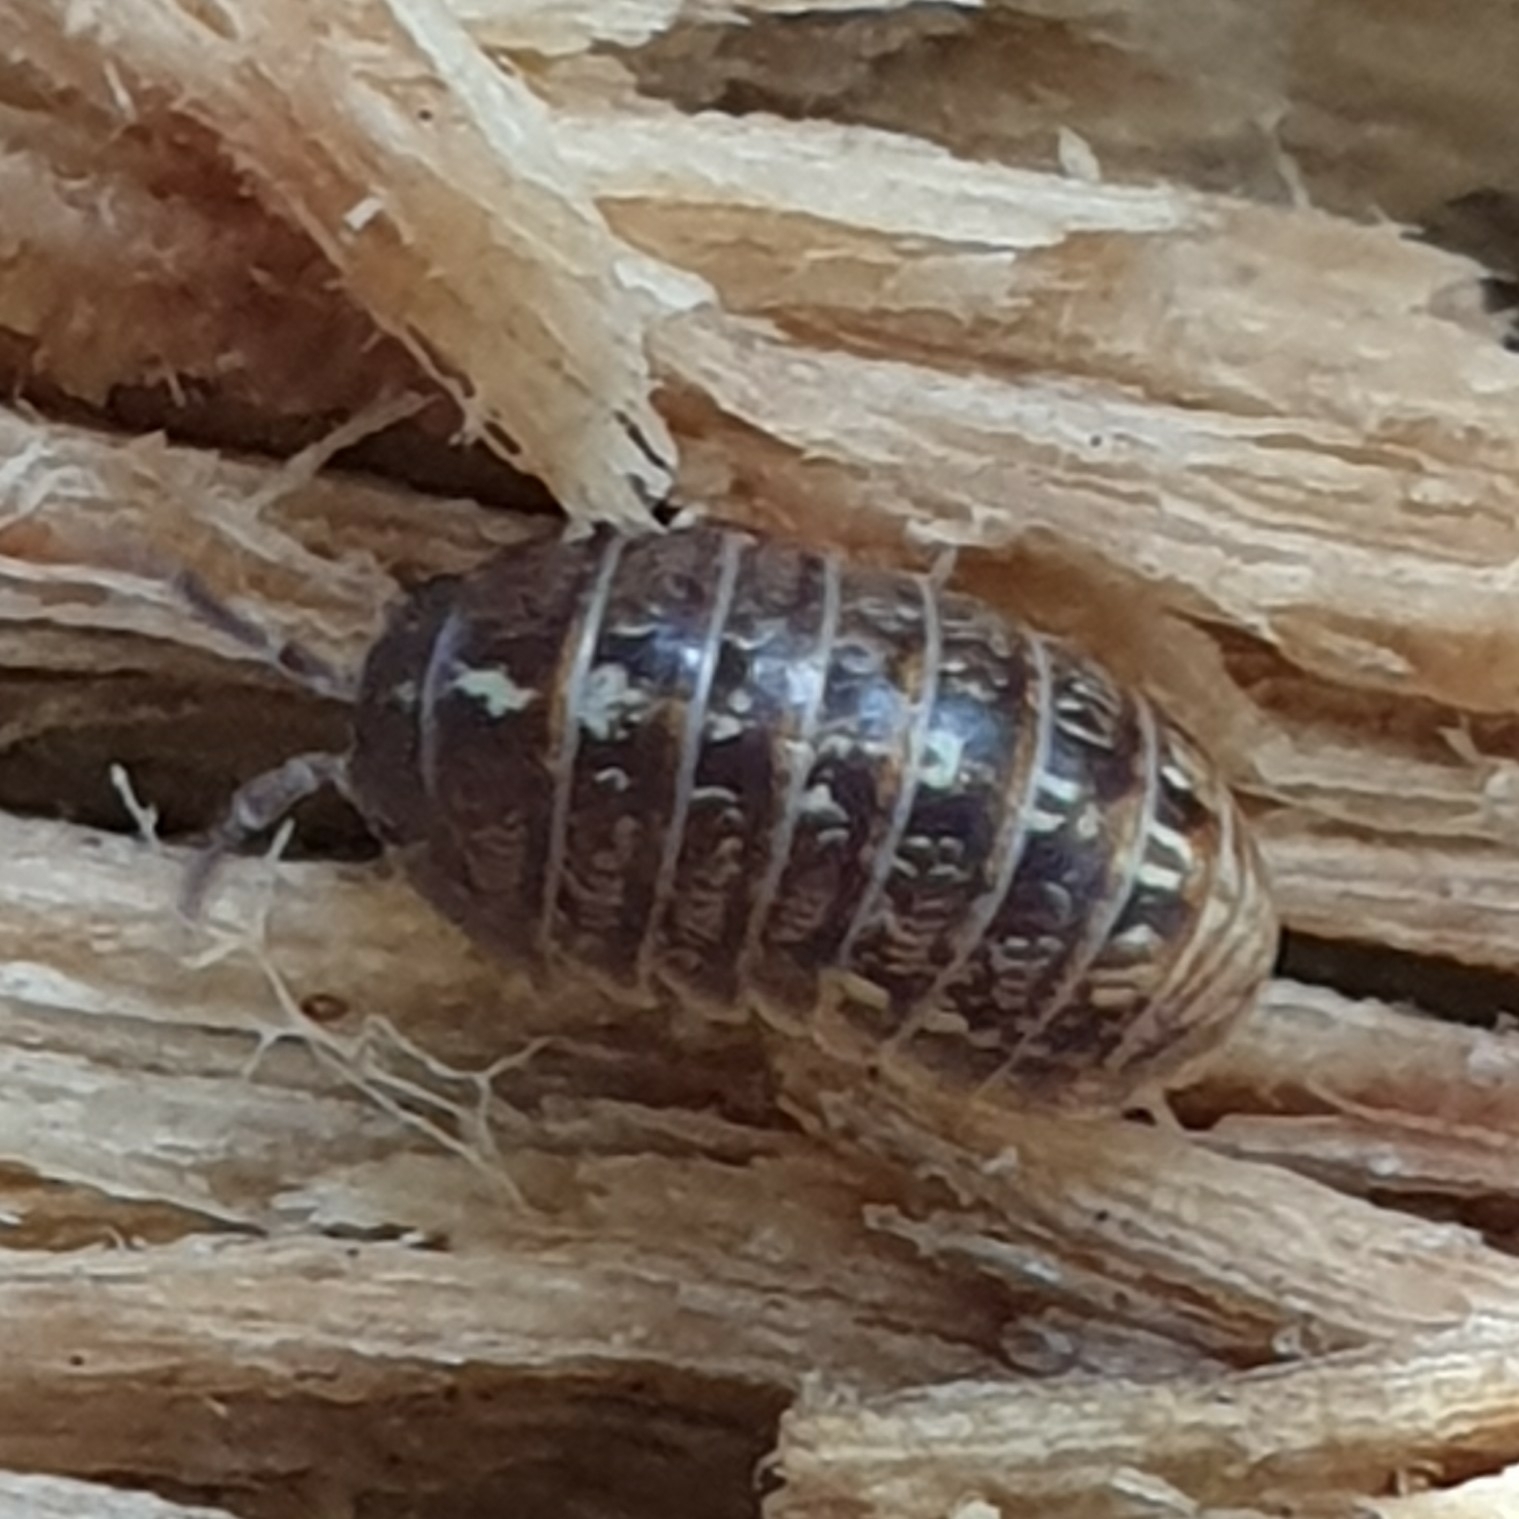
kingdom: Animalia
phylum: Arthropoda
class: Malacostraca
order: Isopoda
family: Armadillidiidae
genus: Armadillidium
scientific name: Armadillidium vulgare
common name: Common pill woodlouse
